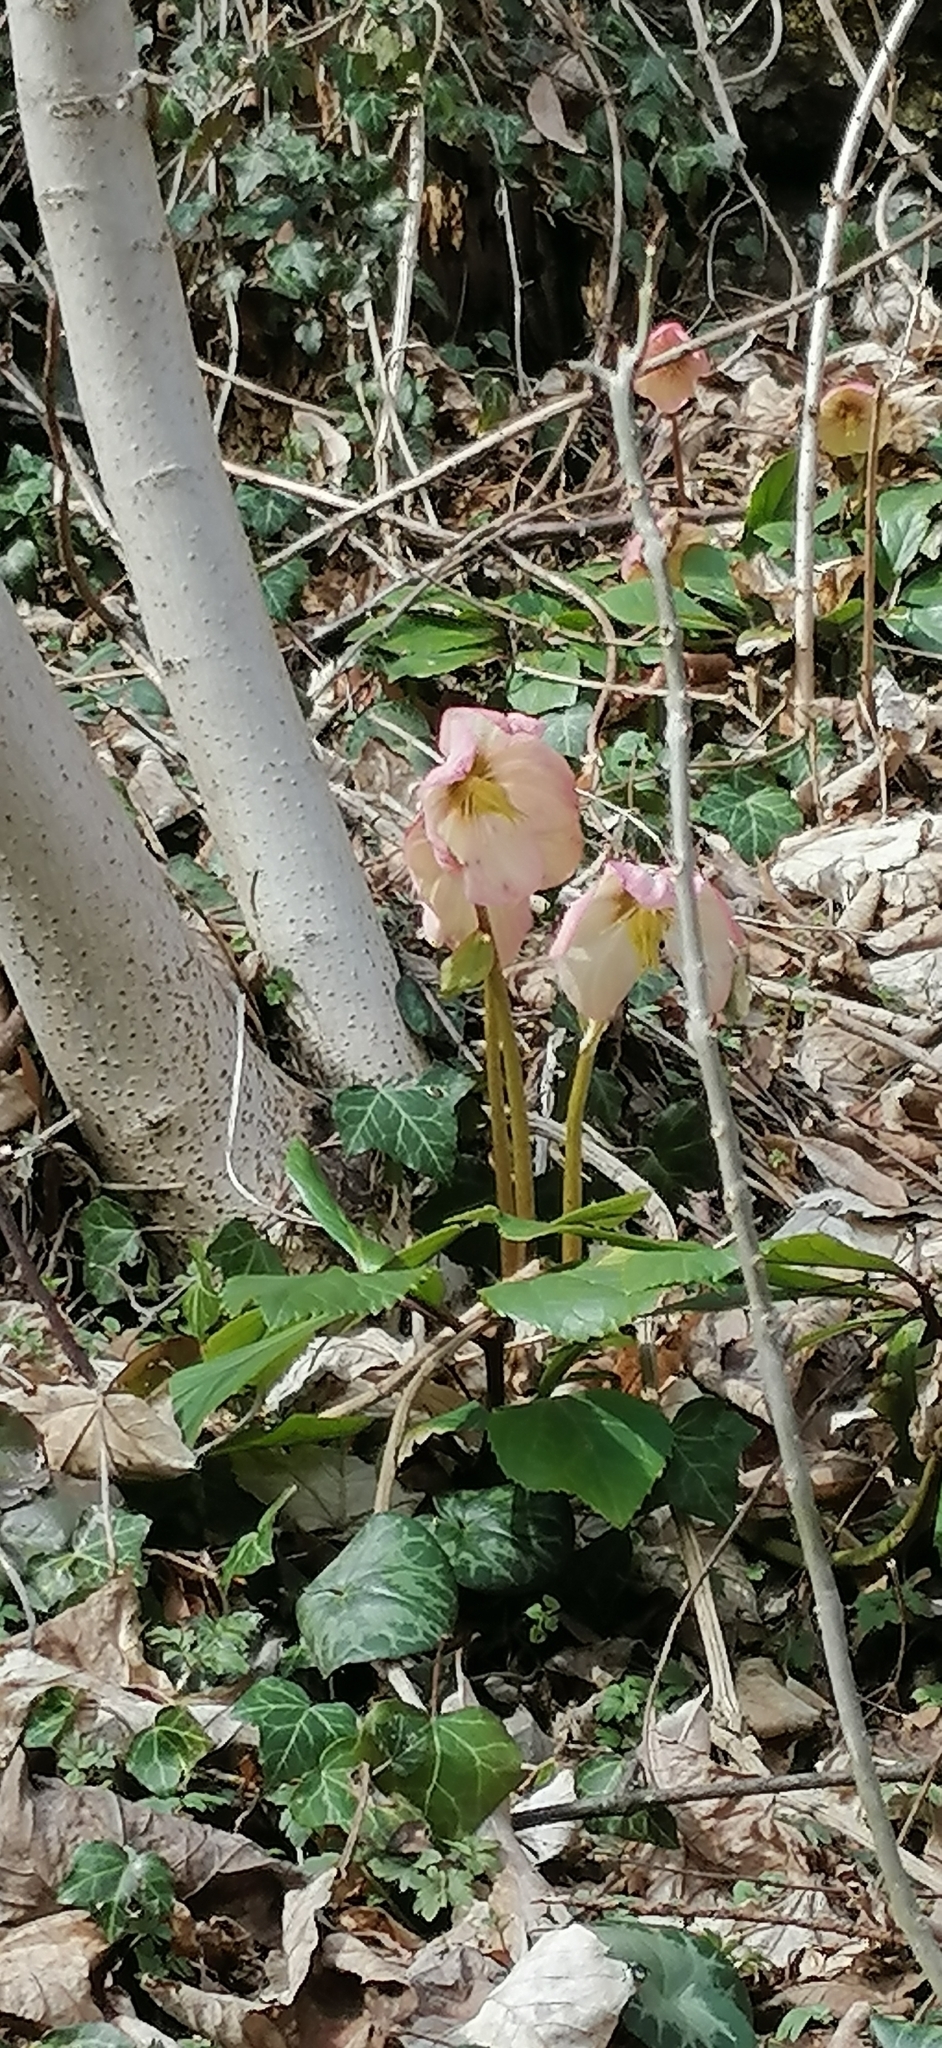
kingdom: Plantae
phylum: Tracheophyta
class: Magnoliopsida
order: Ranunculales
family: Ranunculaceae
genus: Helleborus
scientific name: Helleborus niger
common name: Black hellebore
